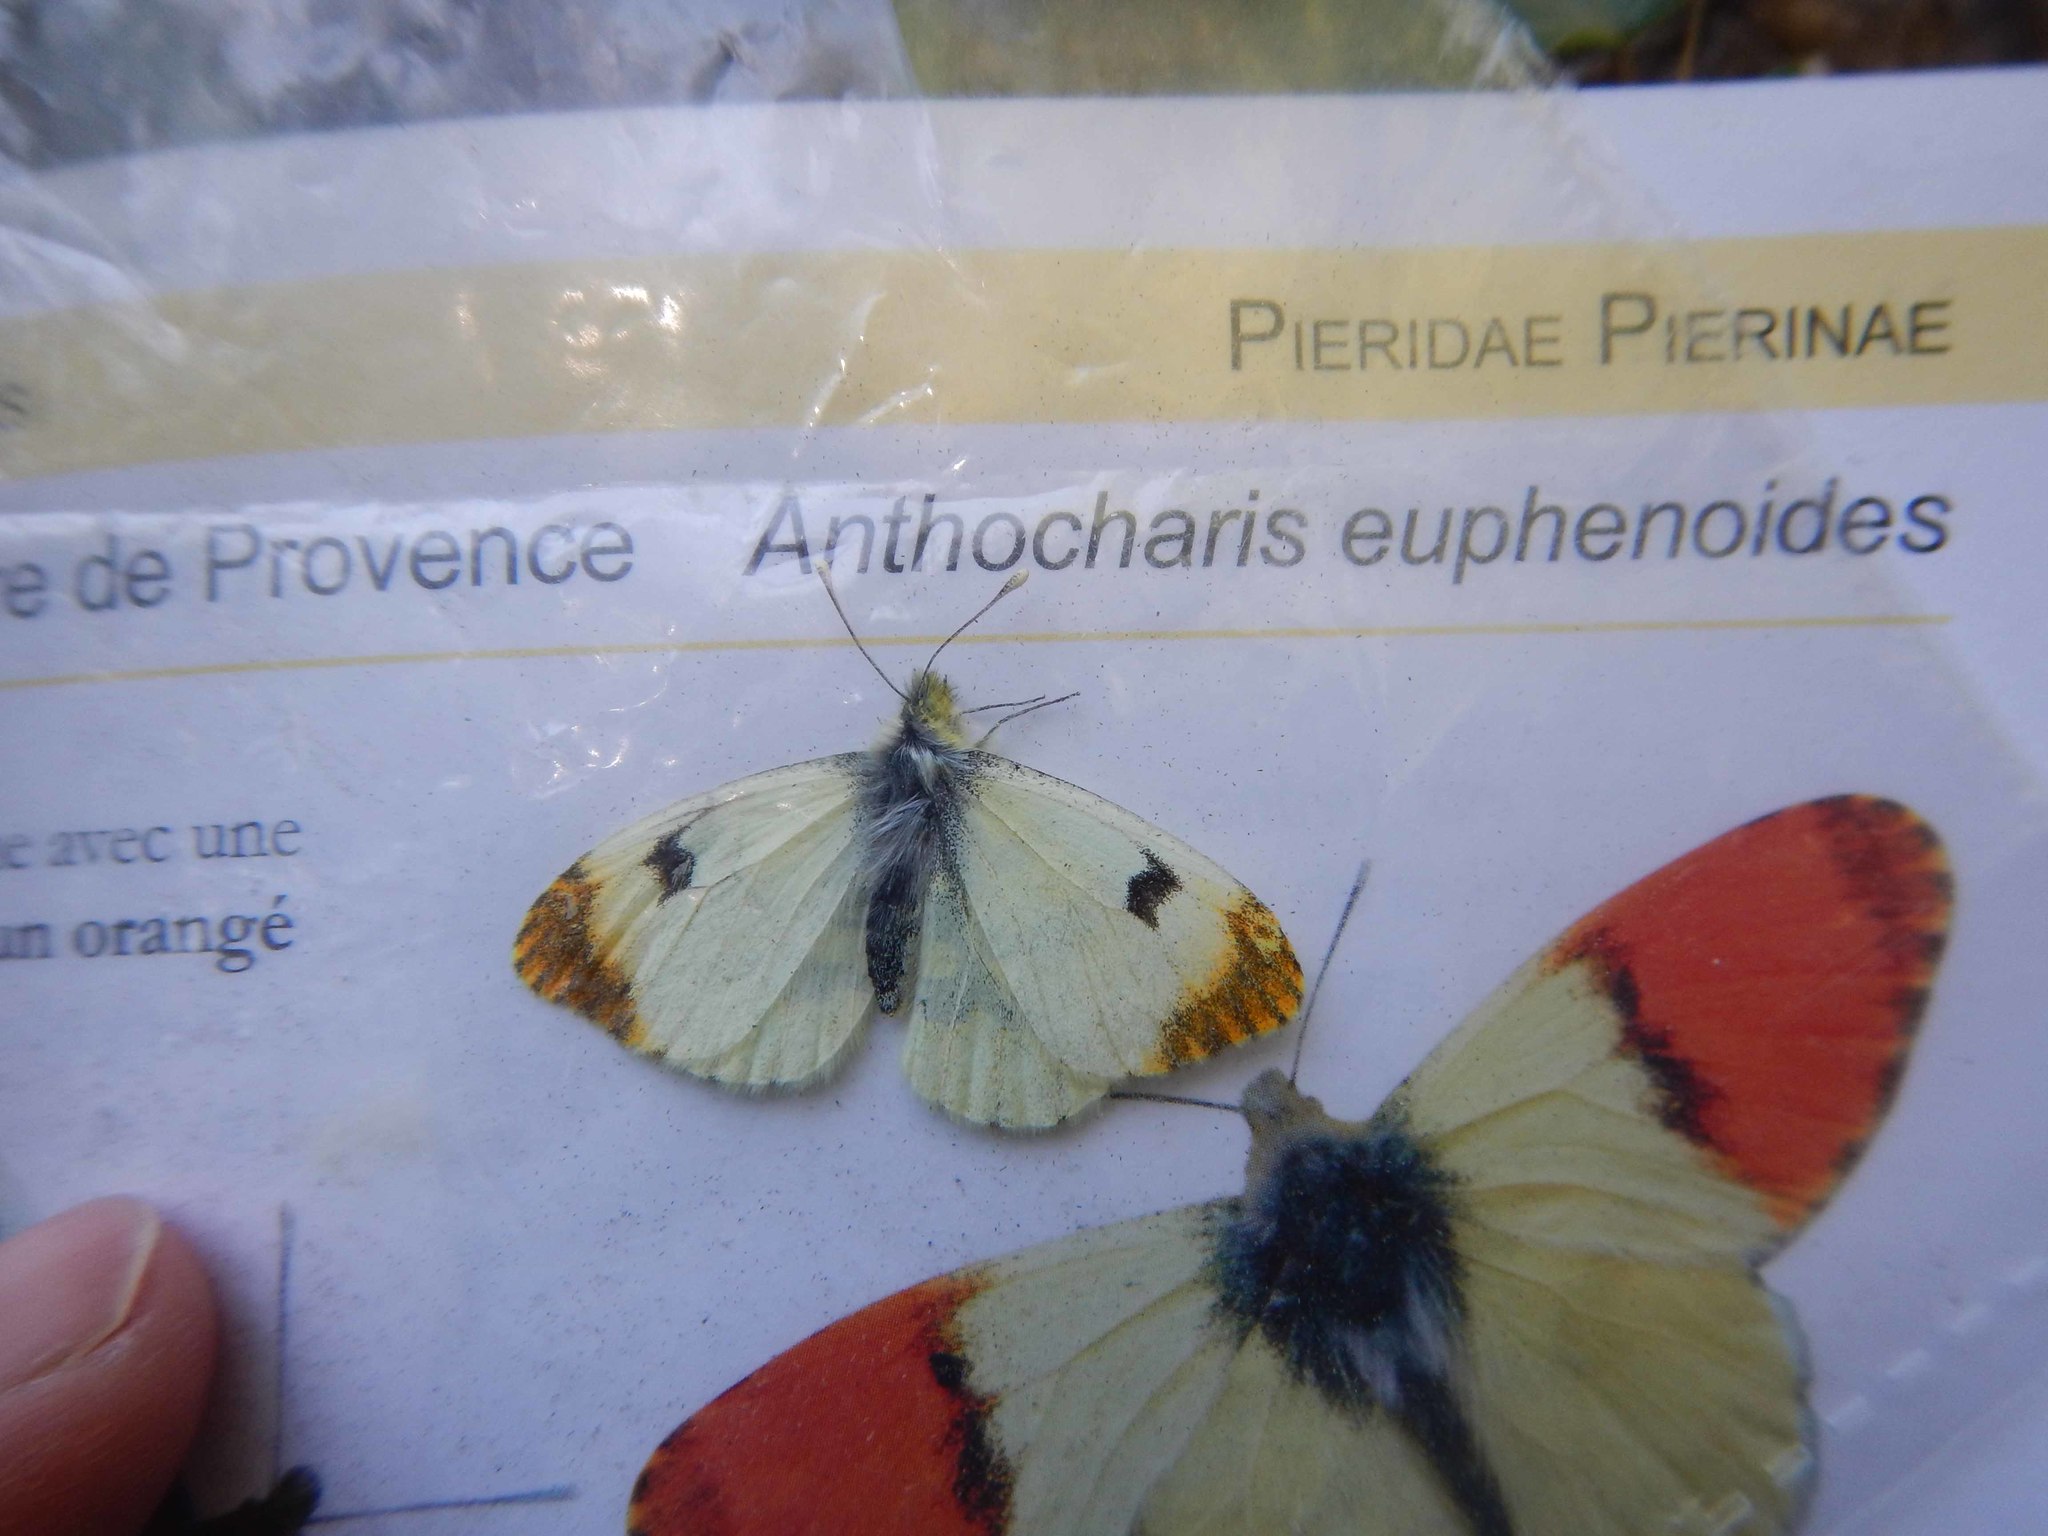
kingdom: Animalia
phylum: Arthropoda
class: Insecta
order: Lepidoptera
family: Pieridae
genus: Anthocharis
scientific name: Anthocharis euphenoides
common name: Provence orange-tip
